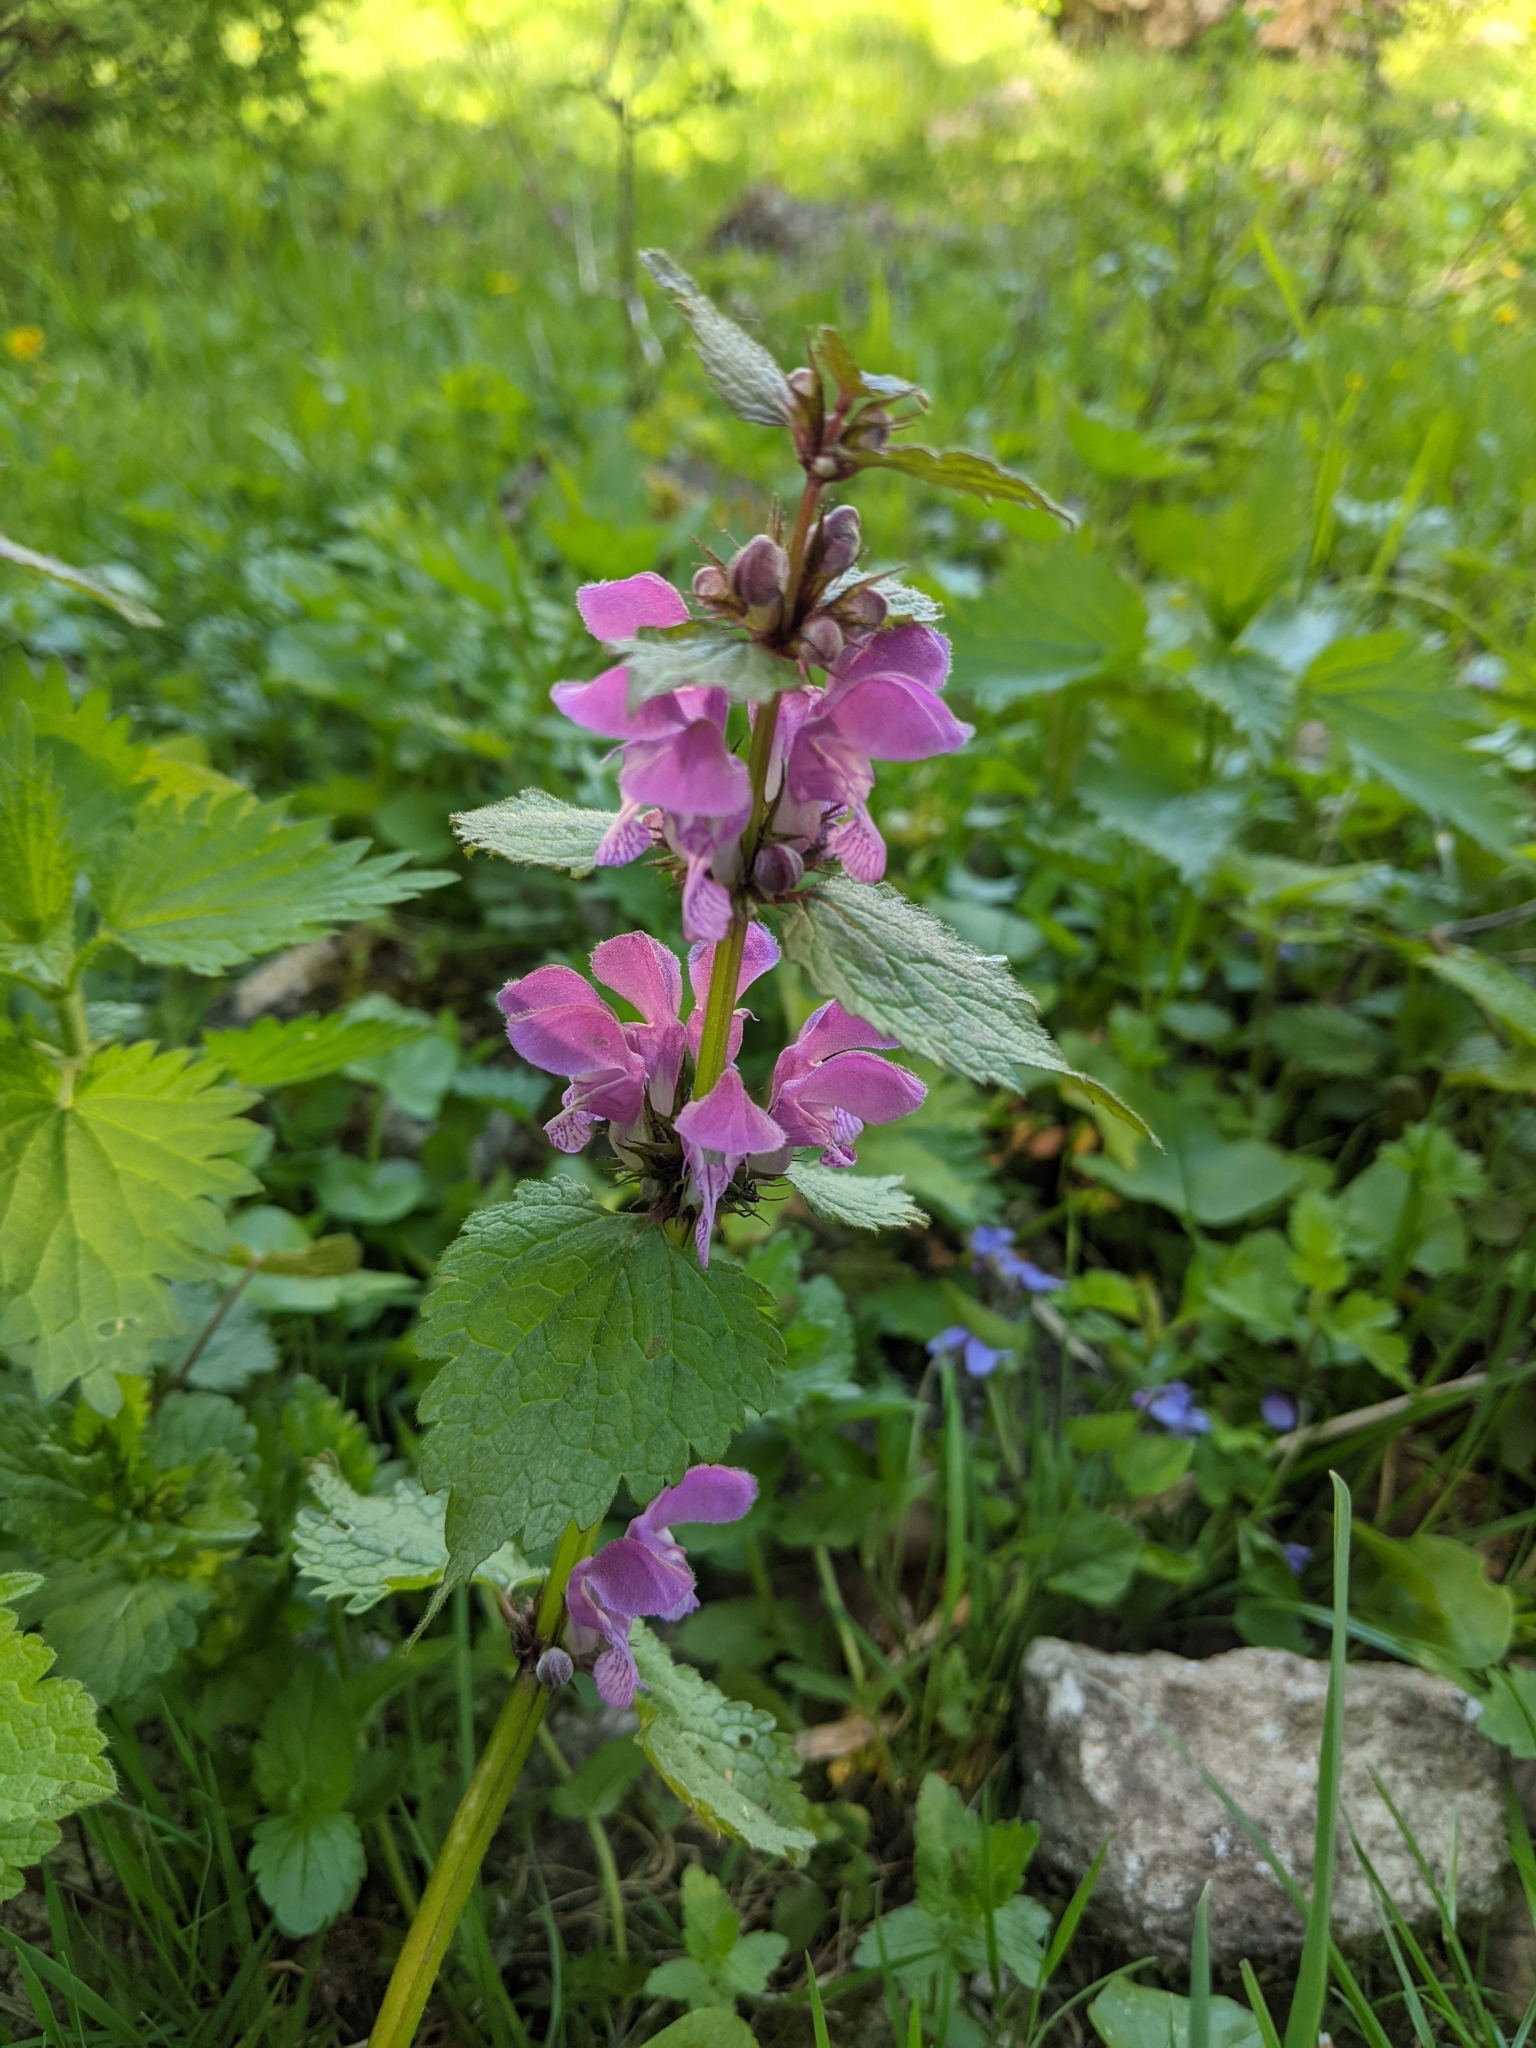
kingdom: Plantae
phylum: Tracheophyta
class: Magnoliopsida
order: Lamiales
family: Lamiaceae
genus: Lamium
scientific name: Lamium maculatum
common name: Spotted dead-nettle
